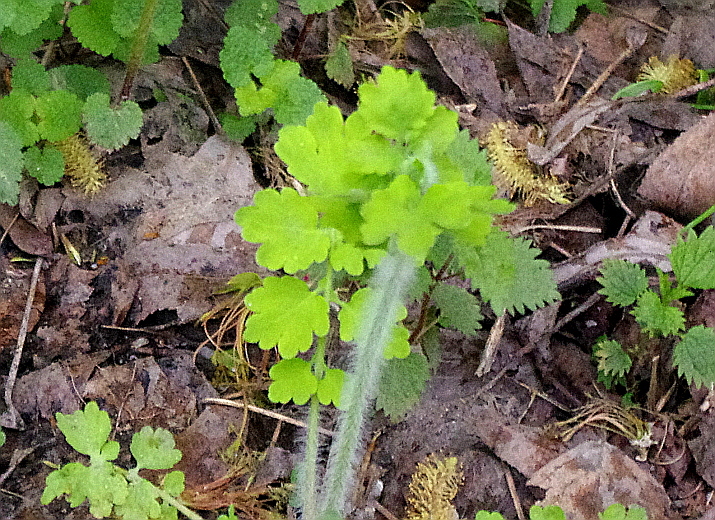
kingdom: Plantae
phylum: Tracheophyta
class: Magnoliopsida
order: Ranunculales
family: Papaveraceae
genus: Chelidonium
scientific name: Chelidonium majus
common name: Greater celandine
